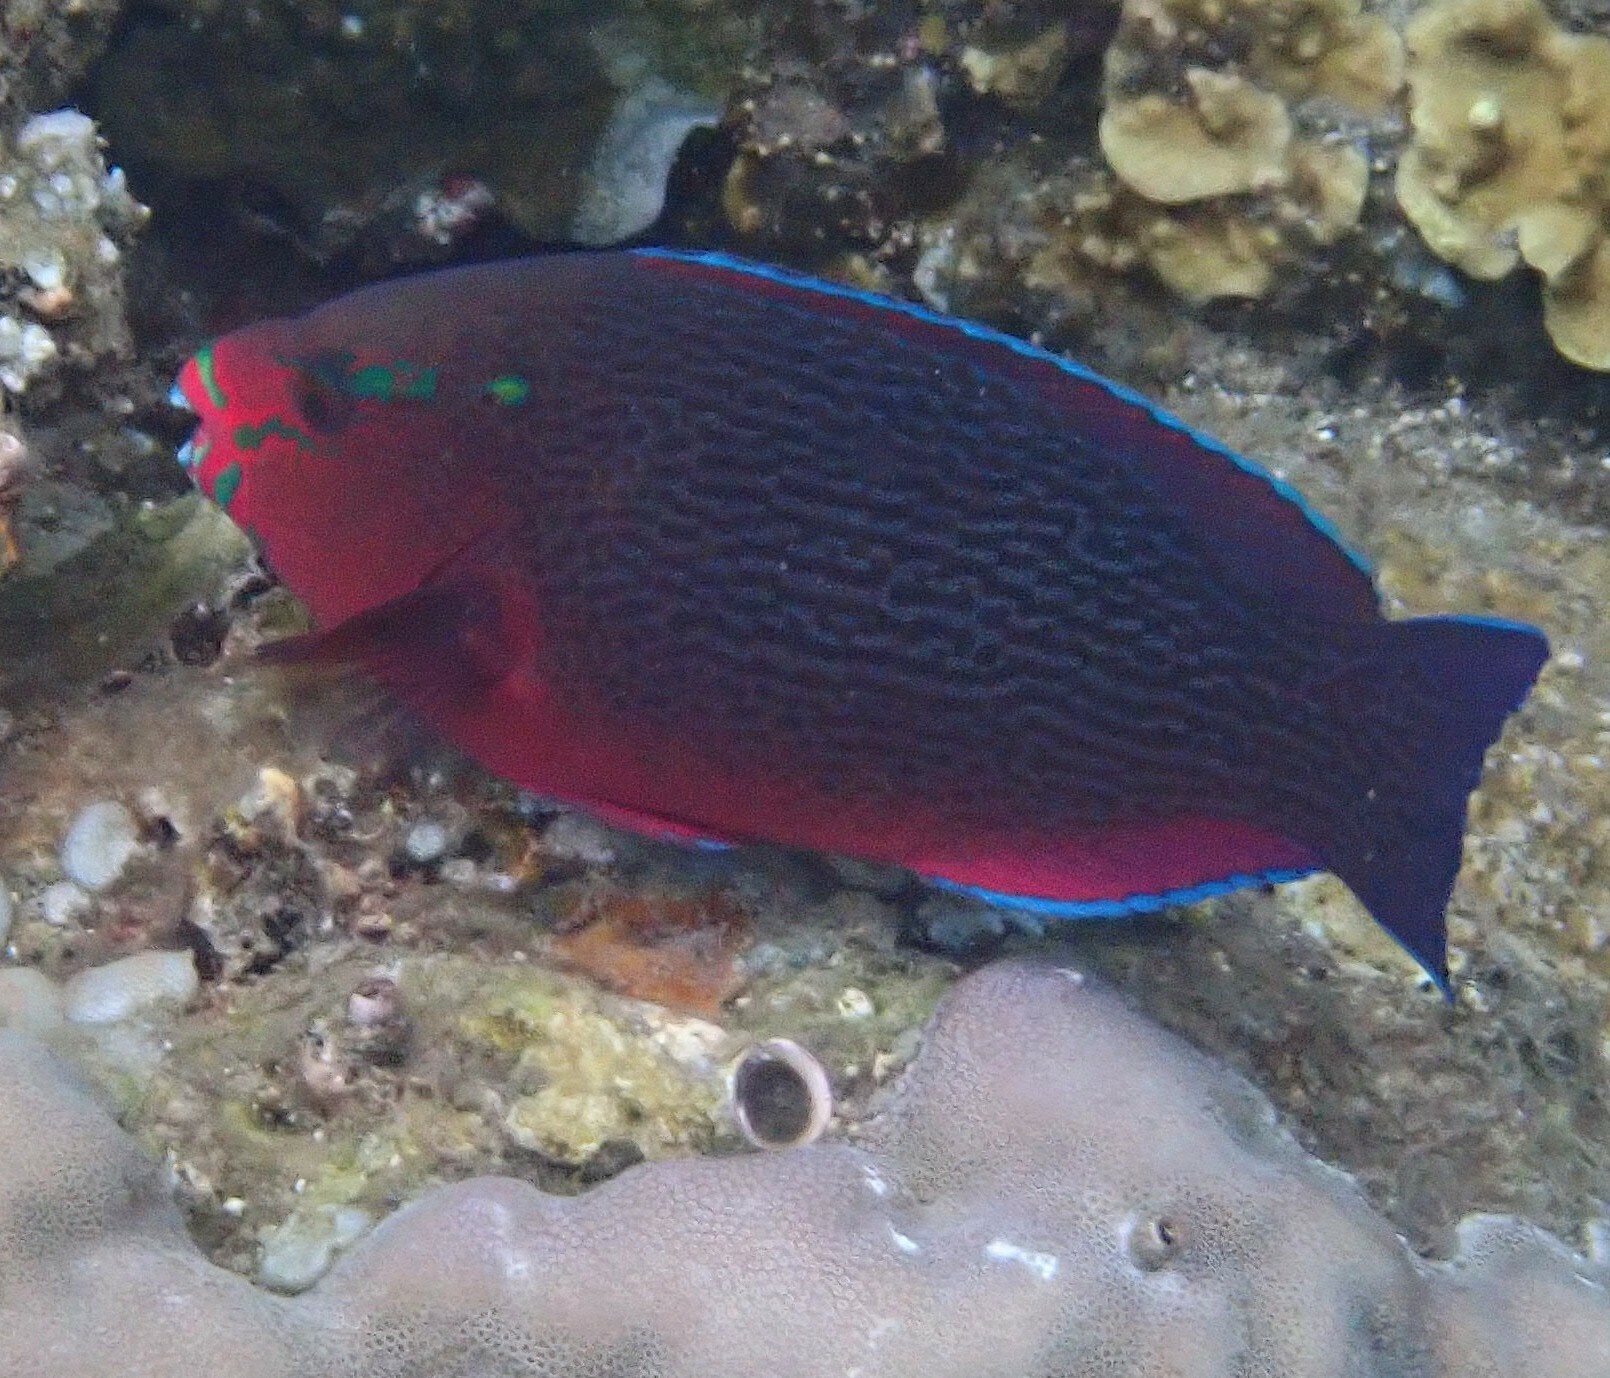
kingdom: Animalia
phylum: Chordata
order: Perciformes
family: Scaridae
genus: Scarus
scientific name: Scarus niger
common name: Dusky parrotfish
